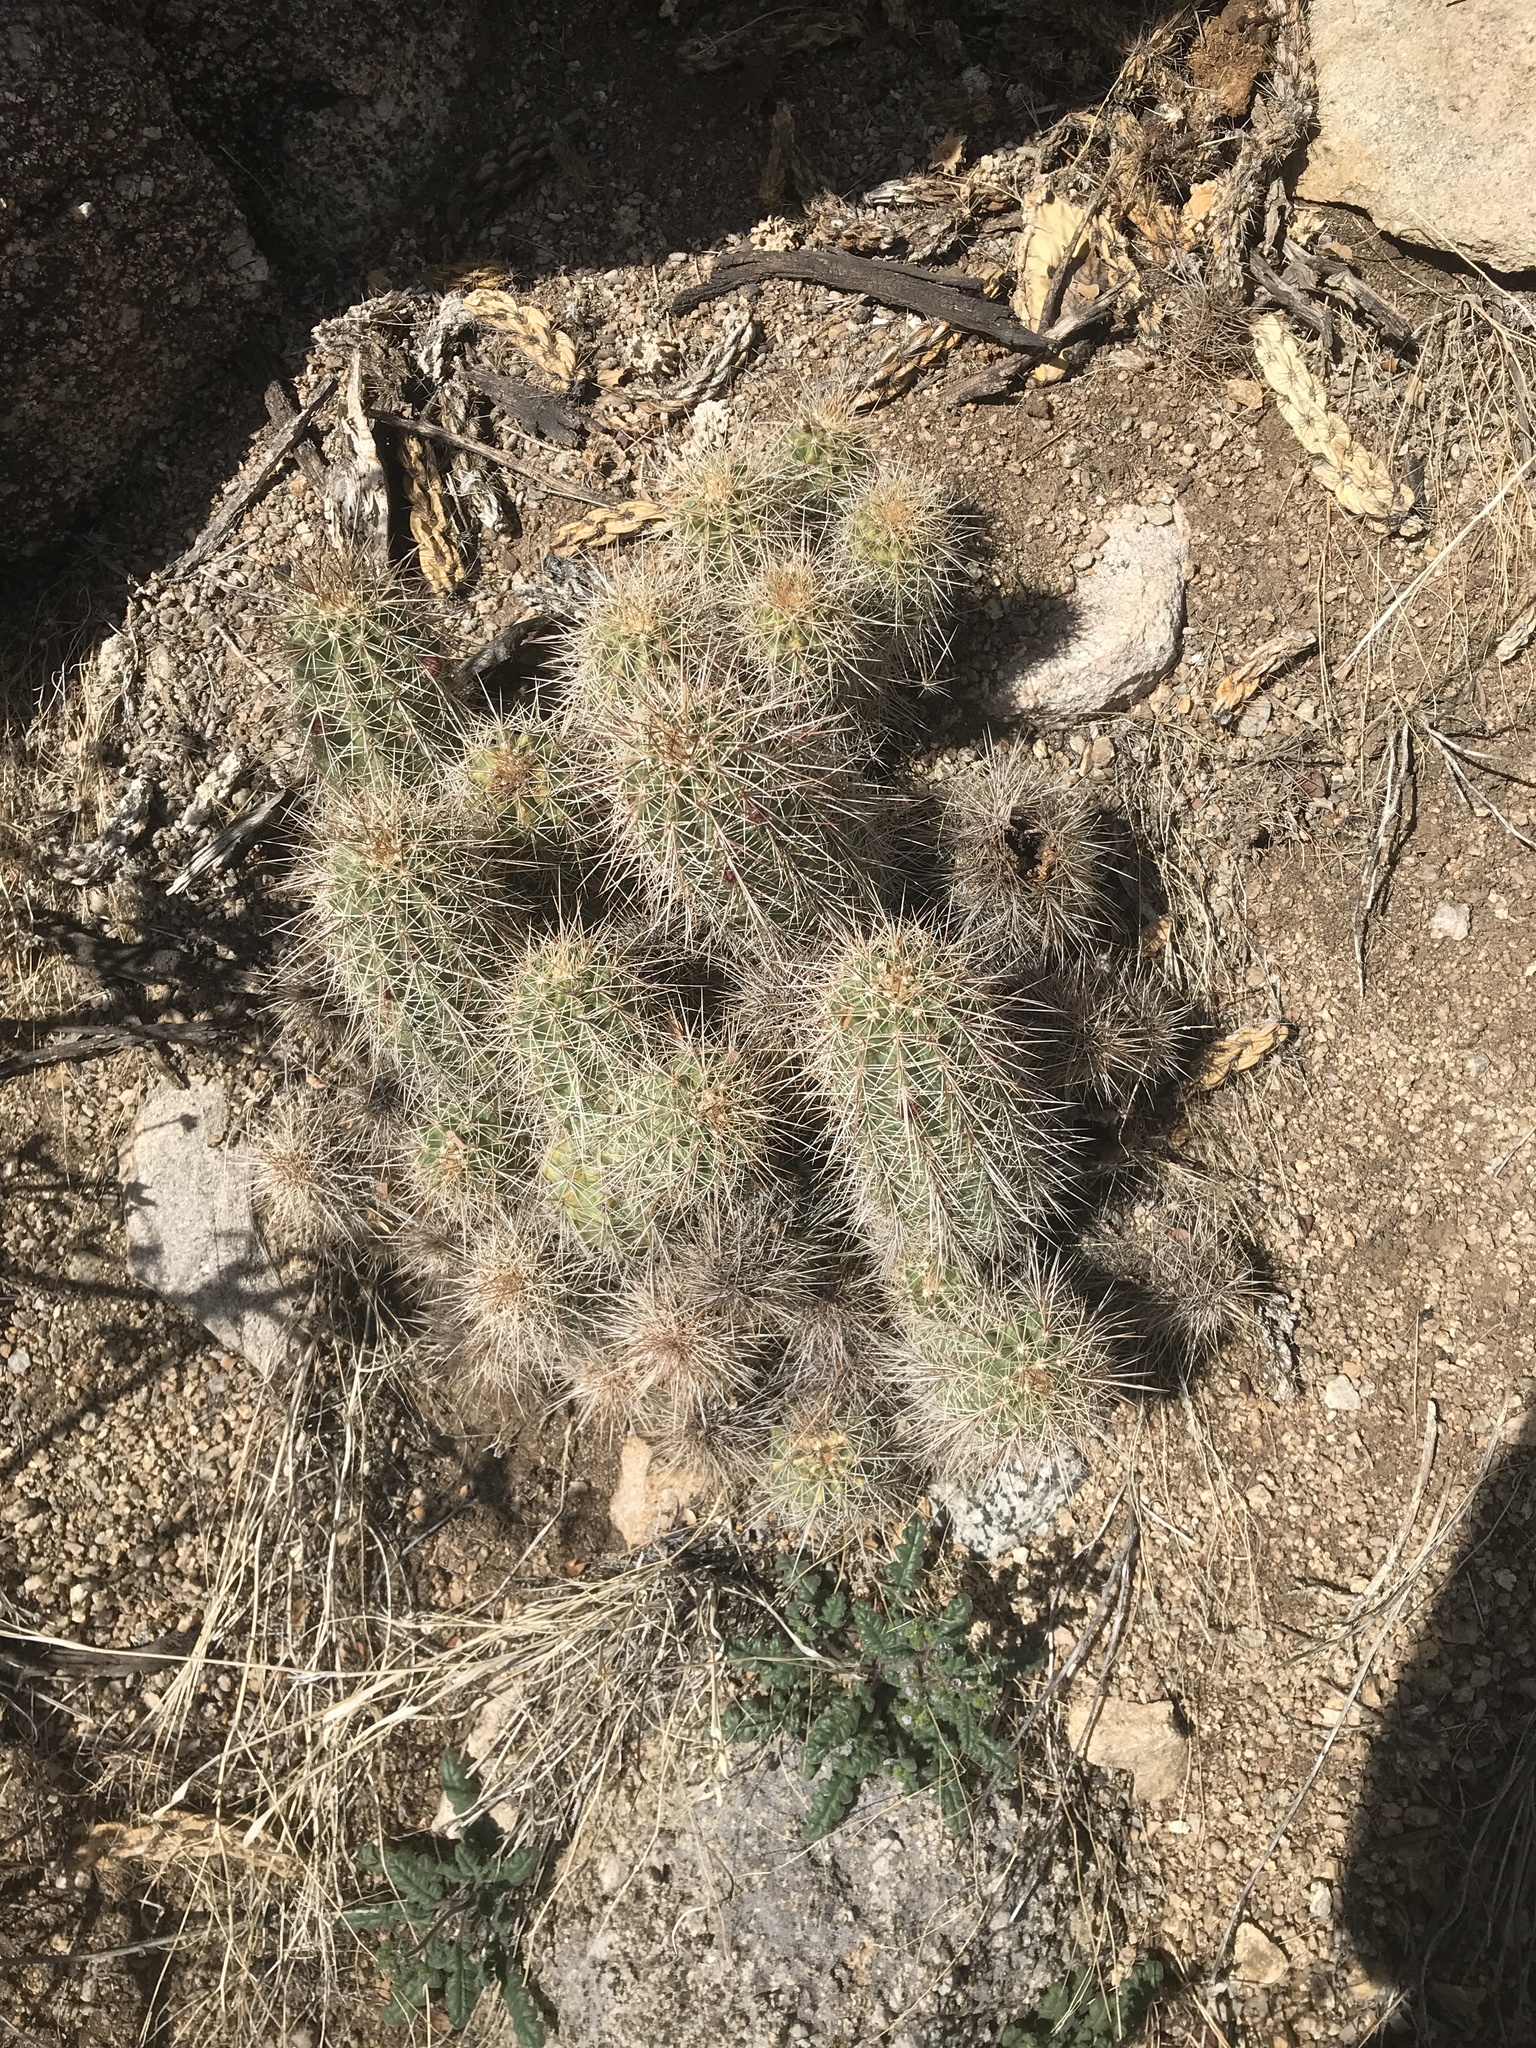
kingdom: Plantae
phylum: Tracheophyta
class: Magnoliopsida
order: Caryophyllales
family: Cactaceae
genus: Echinocereus
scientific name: Echinocereus coccineus
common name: Scarlet hedgehog cactus
